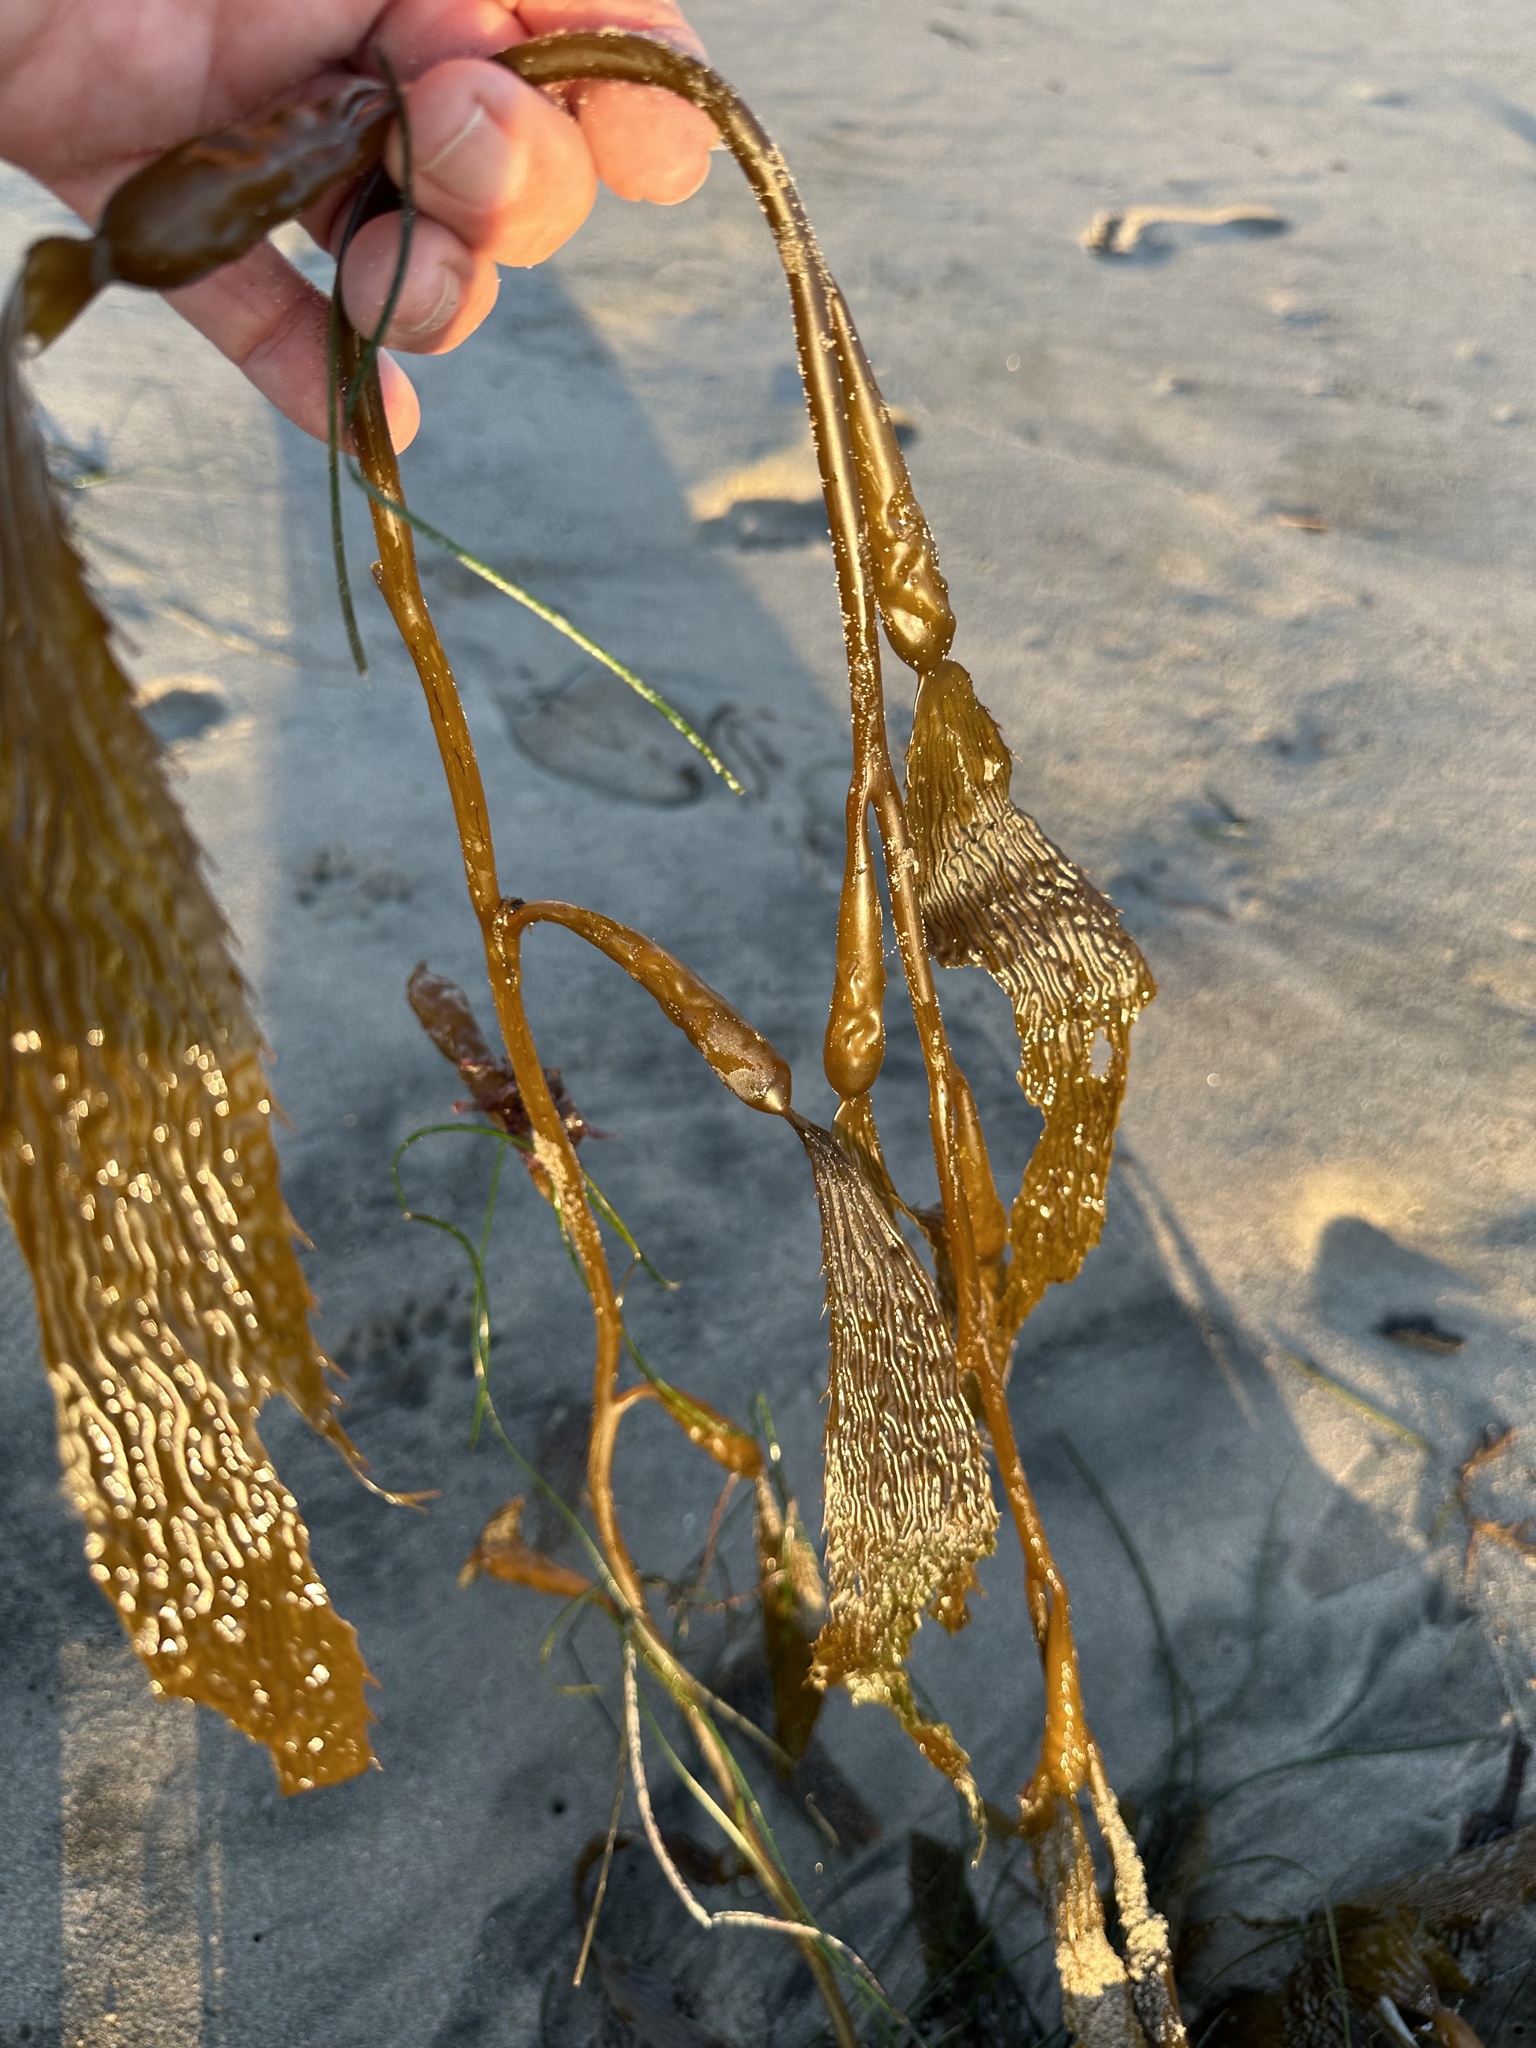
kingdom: Chromista
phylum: Ochrophyta
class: Phaeophyceae
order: Laminariales
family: Laminariaceae
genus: Macrocystis
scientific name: Macrocystis pyrifera
